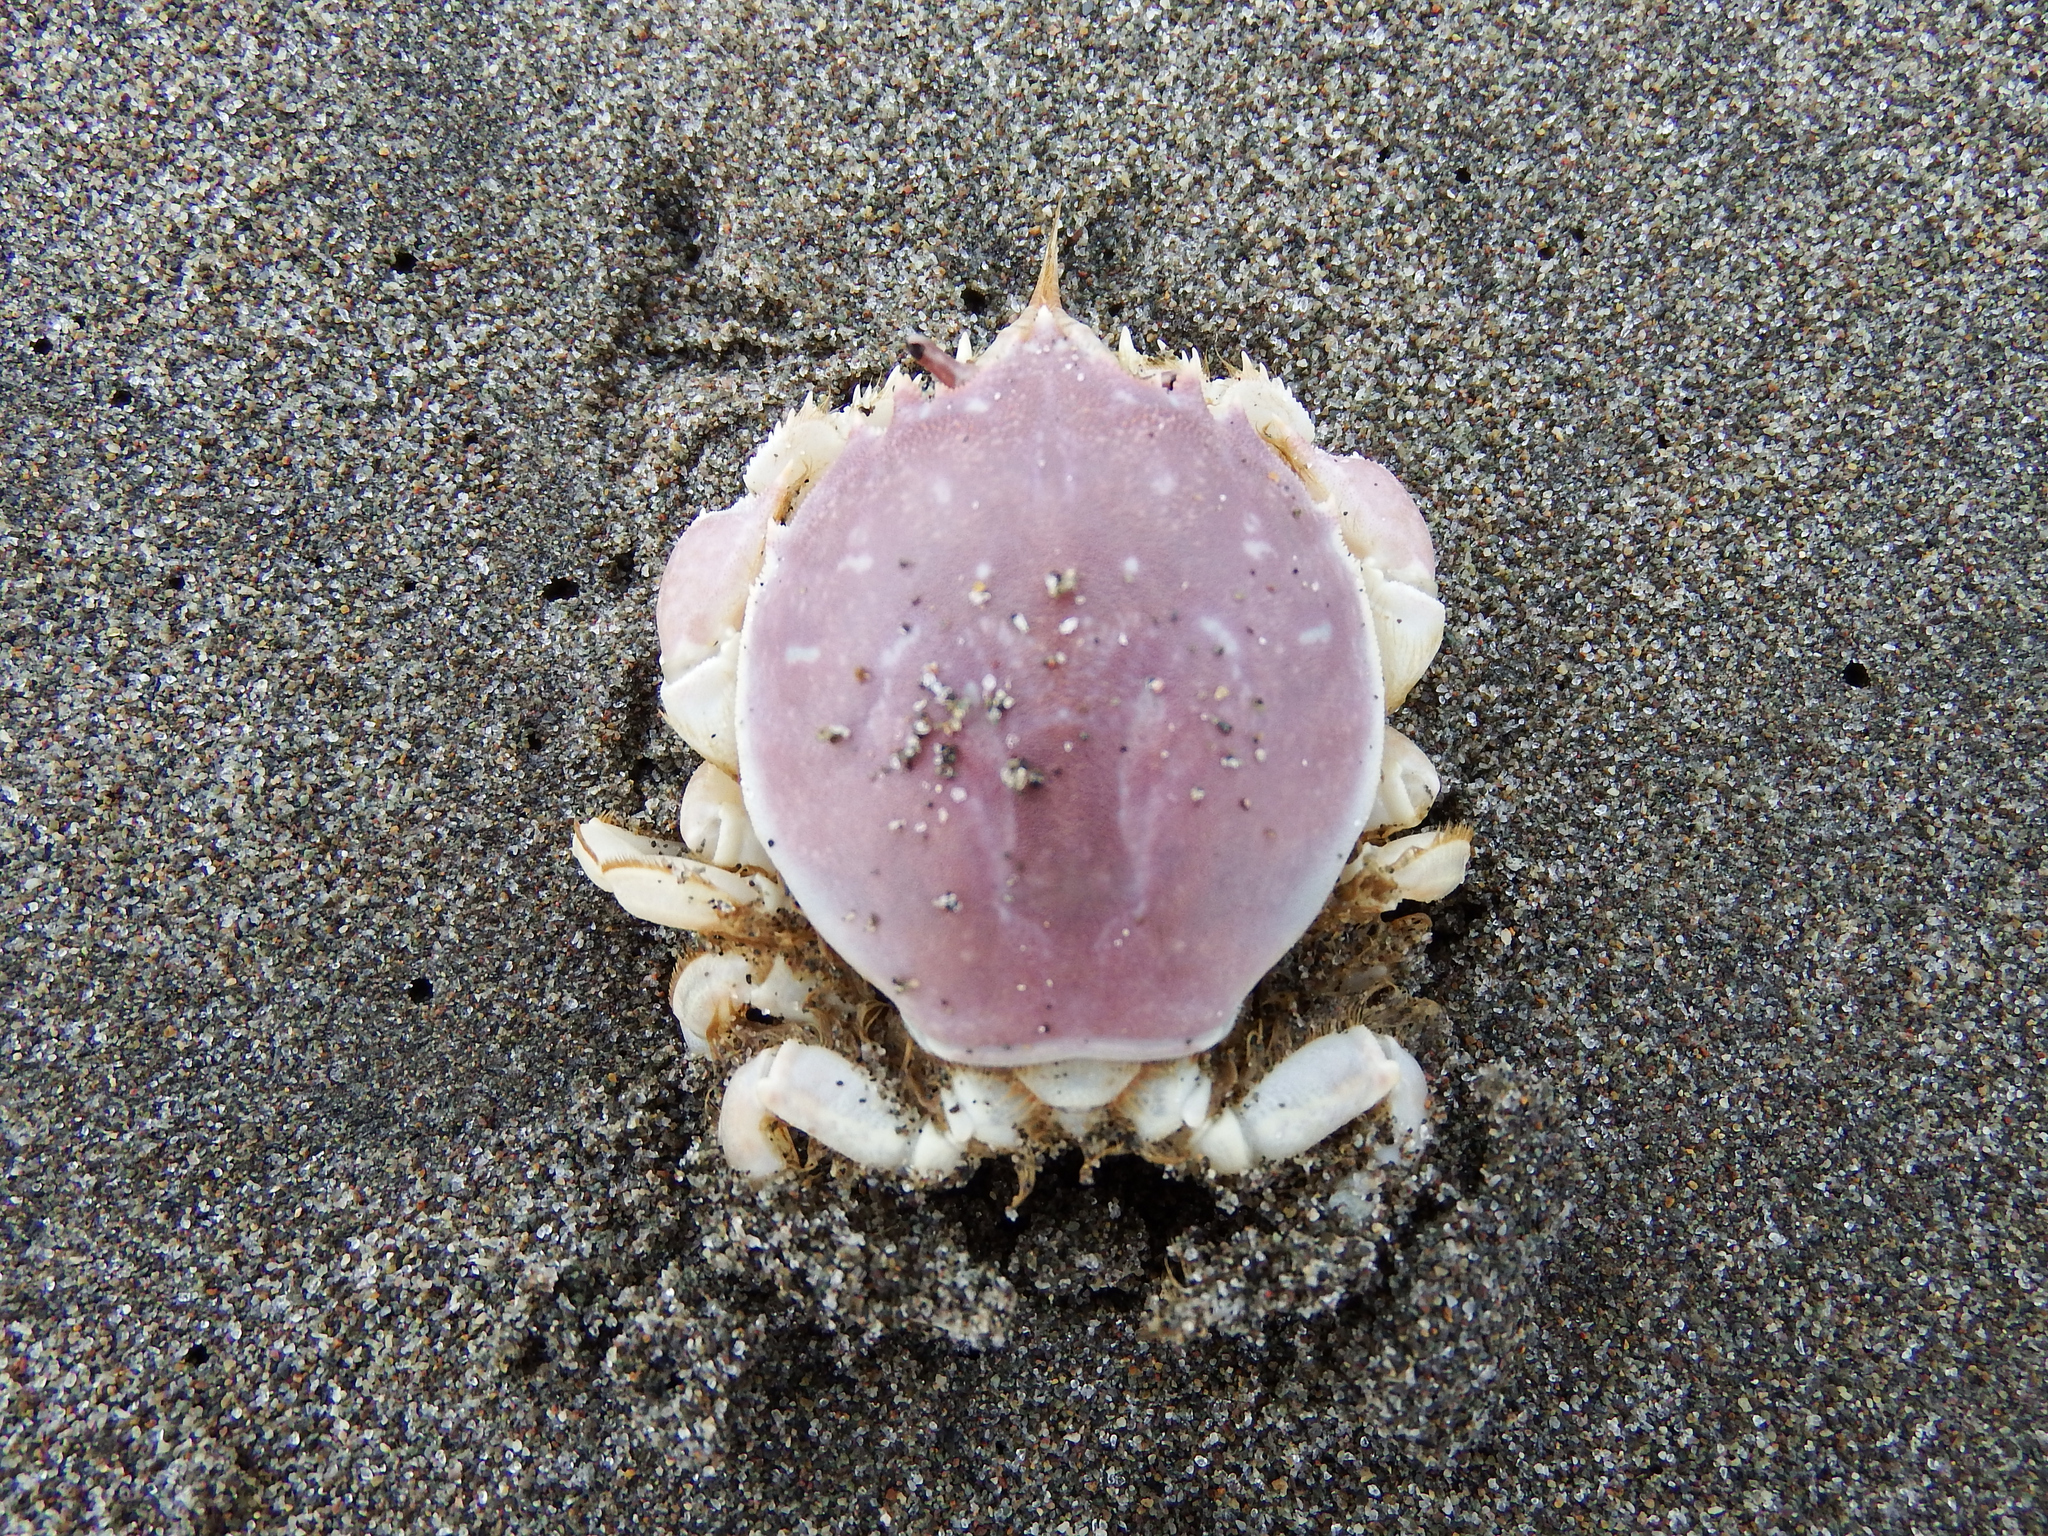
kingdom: Animalia
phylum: Arthropoda
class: Malacostraca
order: Decapoda
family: Atelecyclidae
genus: Pseudocorystes
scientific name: Pseudocorystes sicarius
